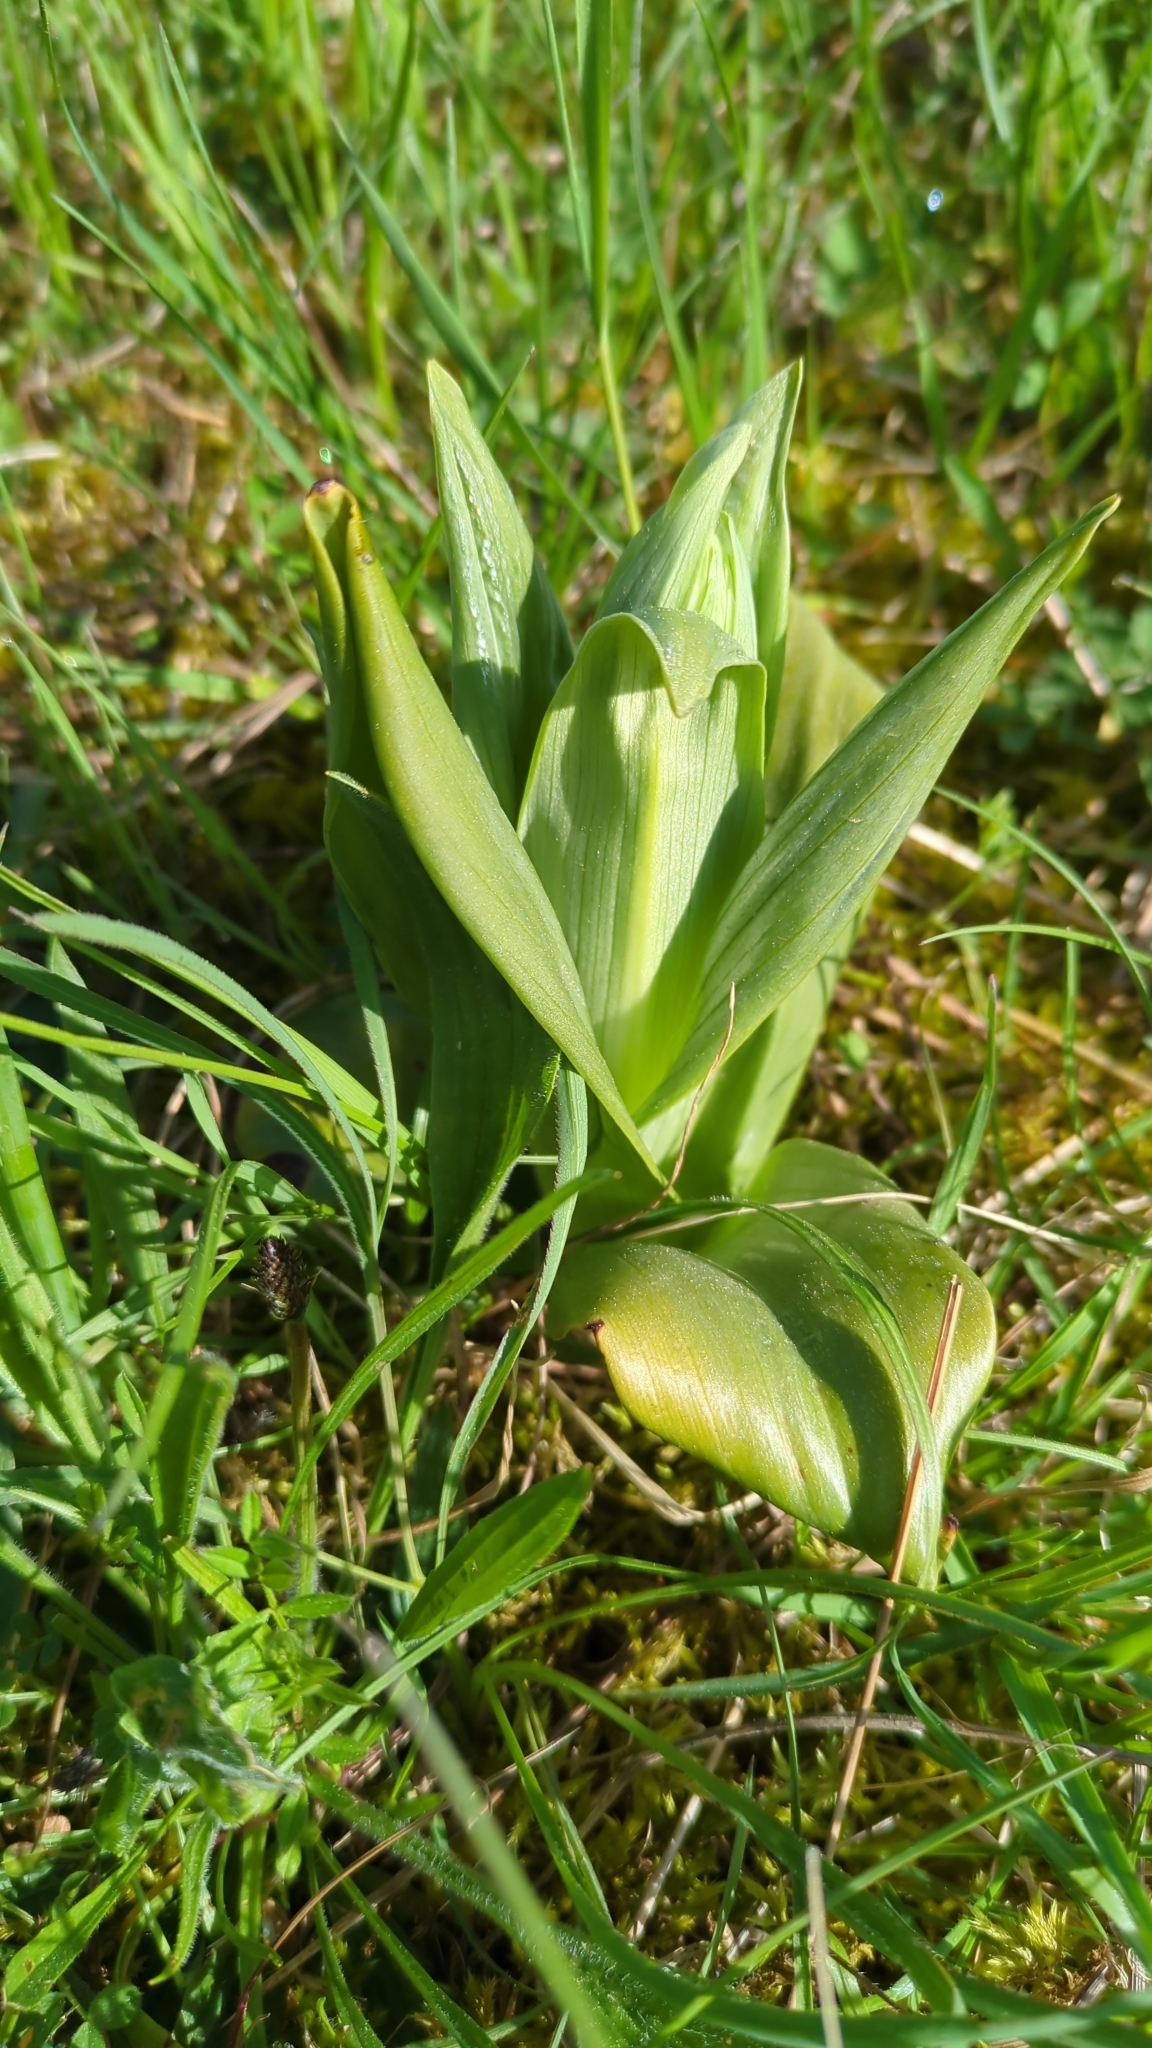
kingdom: Plantae
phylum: Tracheophyta
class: Liliopsida
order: Asparagales
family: Orchidaceae
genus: Himantoglossum
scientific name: Himantoglossum hircinum
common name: Lizard orchid
